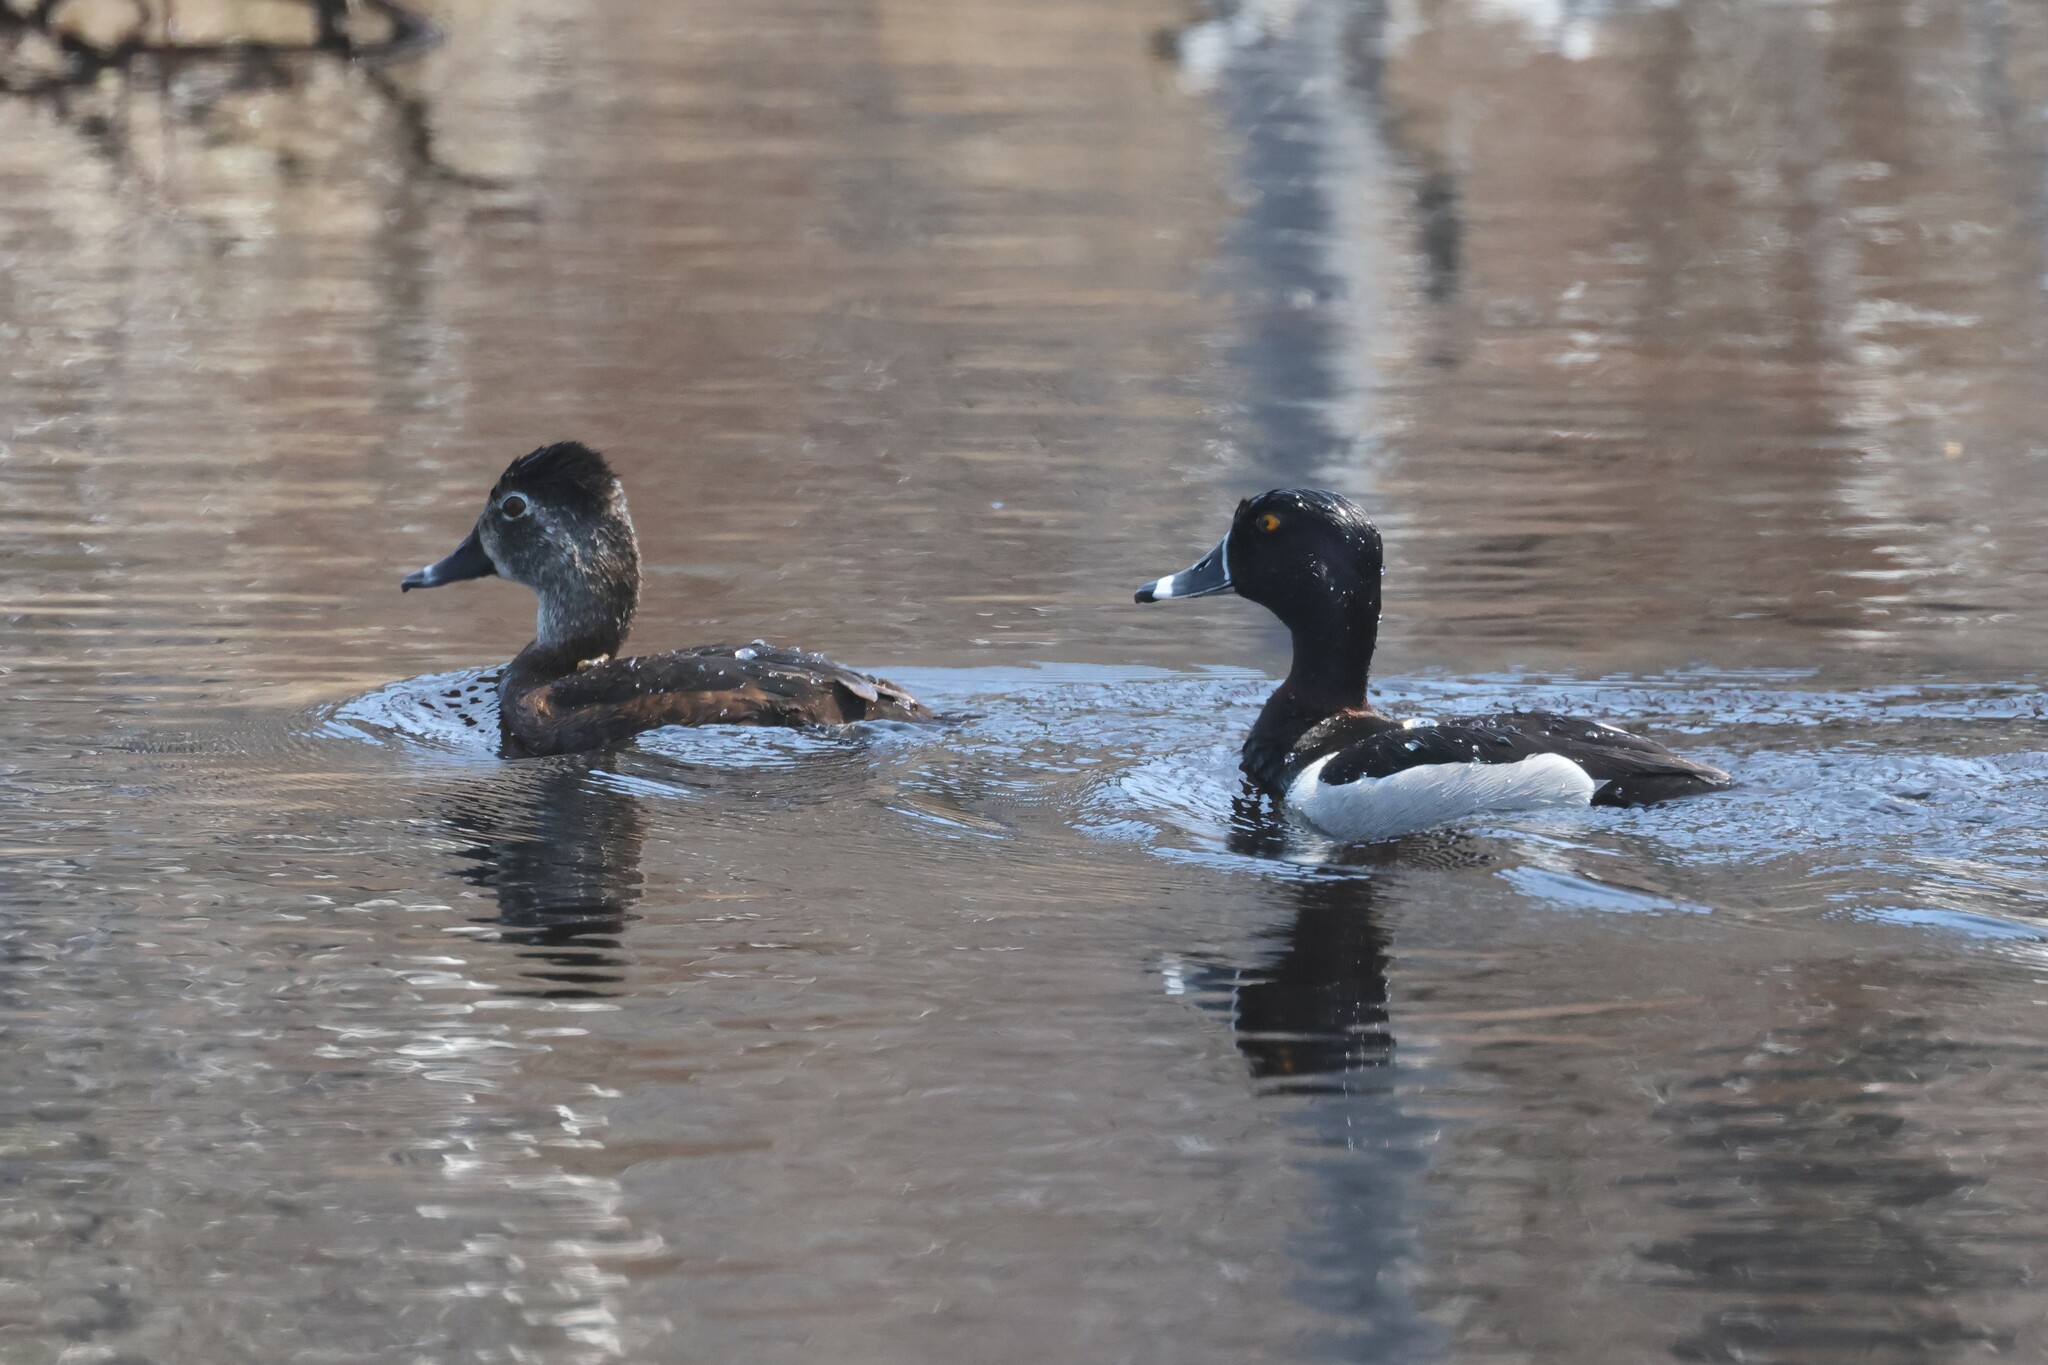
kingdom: Animalia
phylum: Chordata
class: Aves
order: Anseriformes
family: Anatidae
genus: Aythya
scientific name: Aythya collaris
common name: Ring-necked duck
